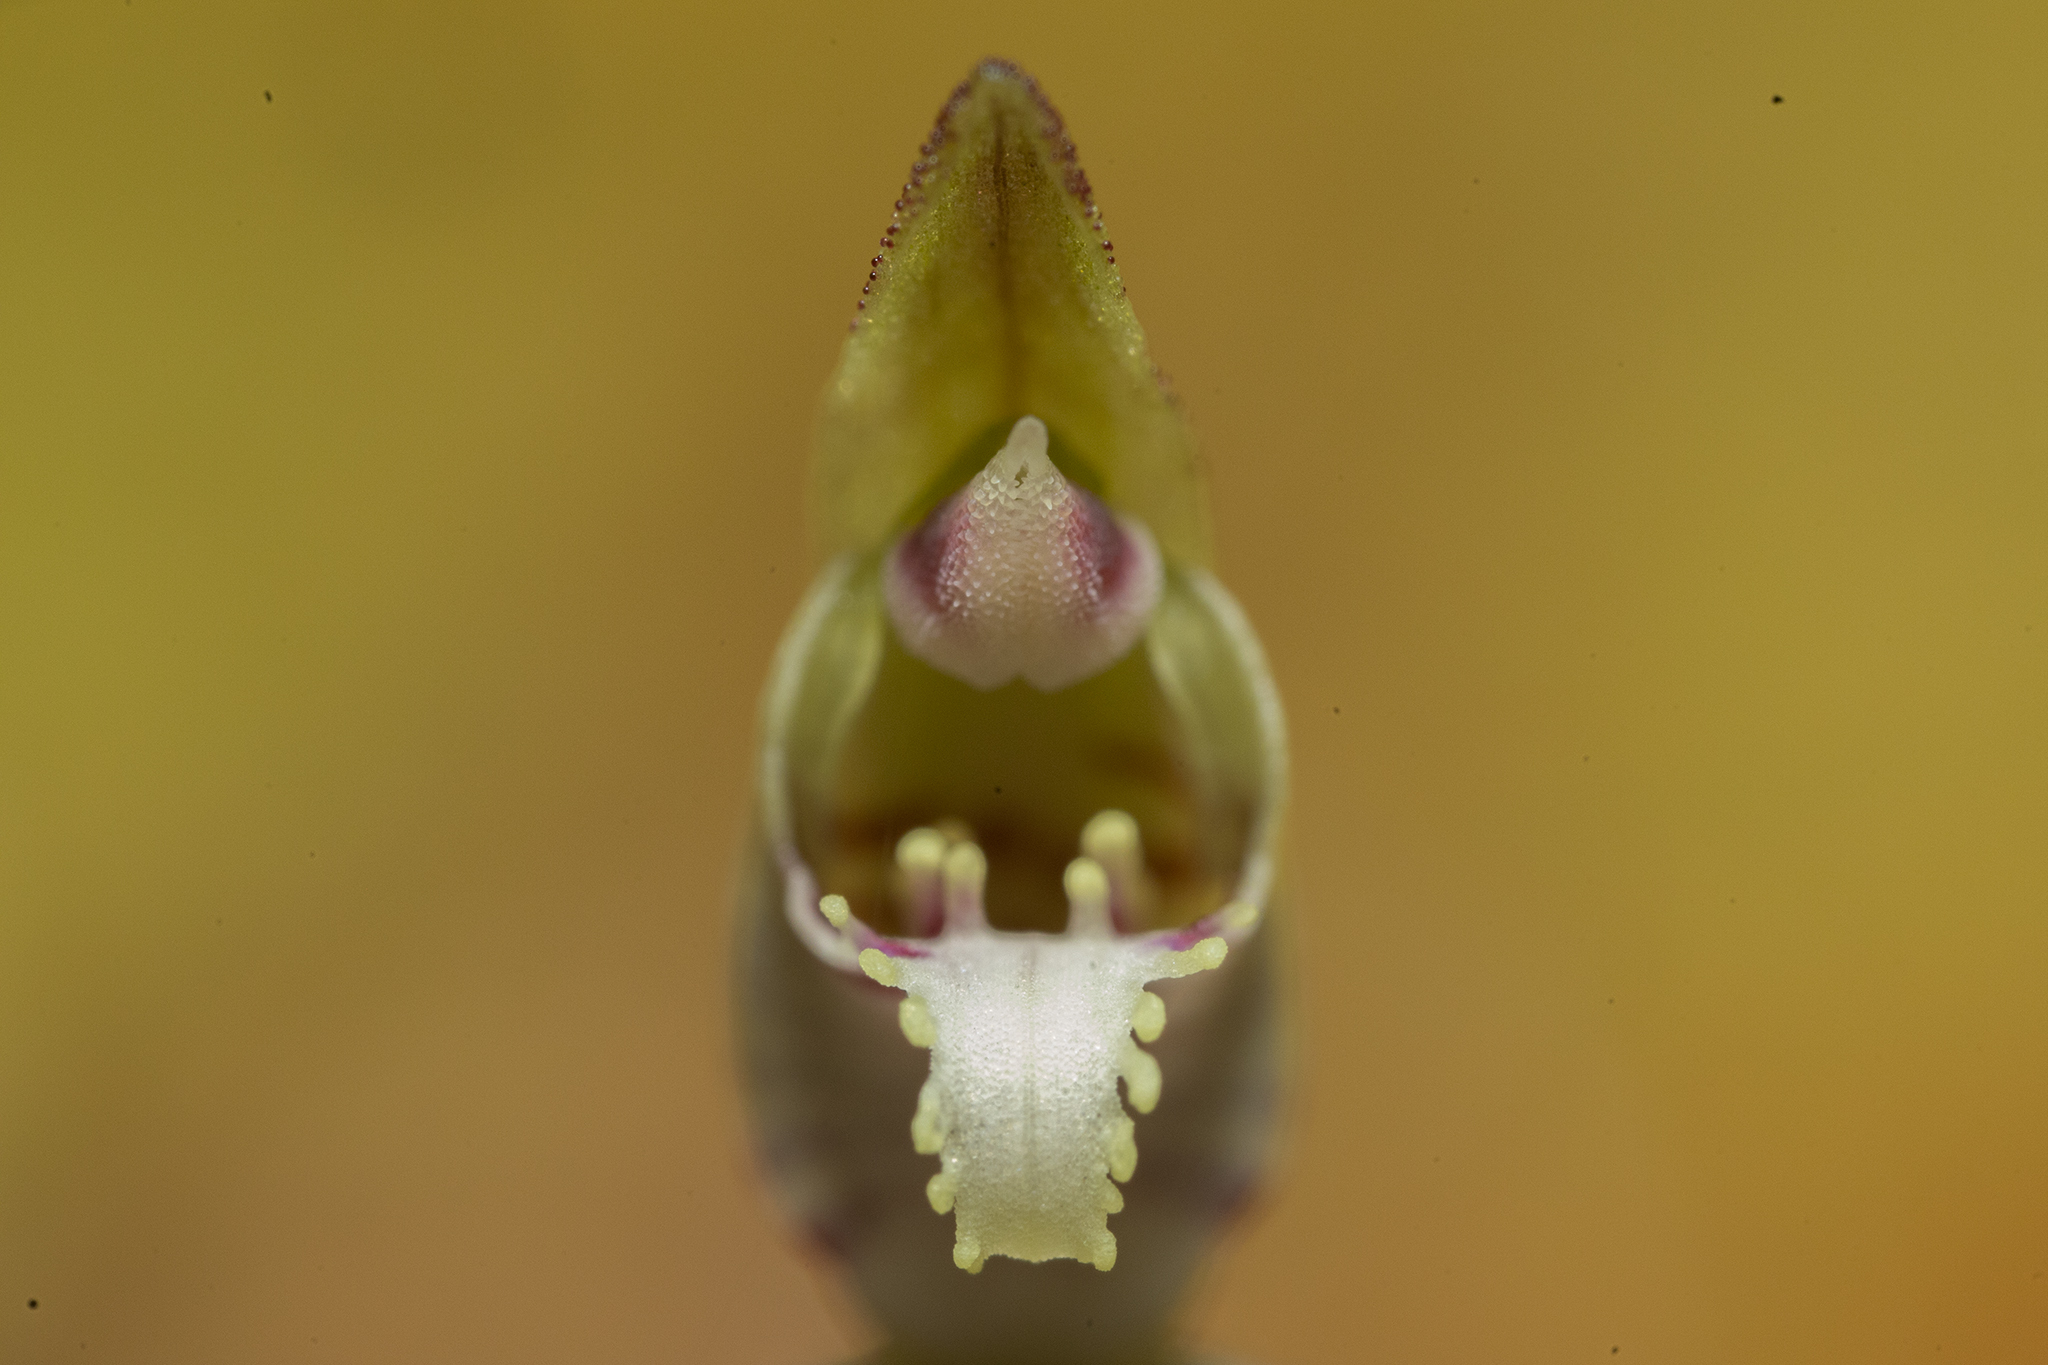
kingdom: Plantae
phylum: Tracheophyta
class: Liliopsida
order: Asparagales
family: Orchidaceae
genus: Caladenia
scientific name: Caladenia chlorostyla
